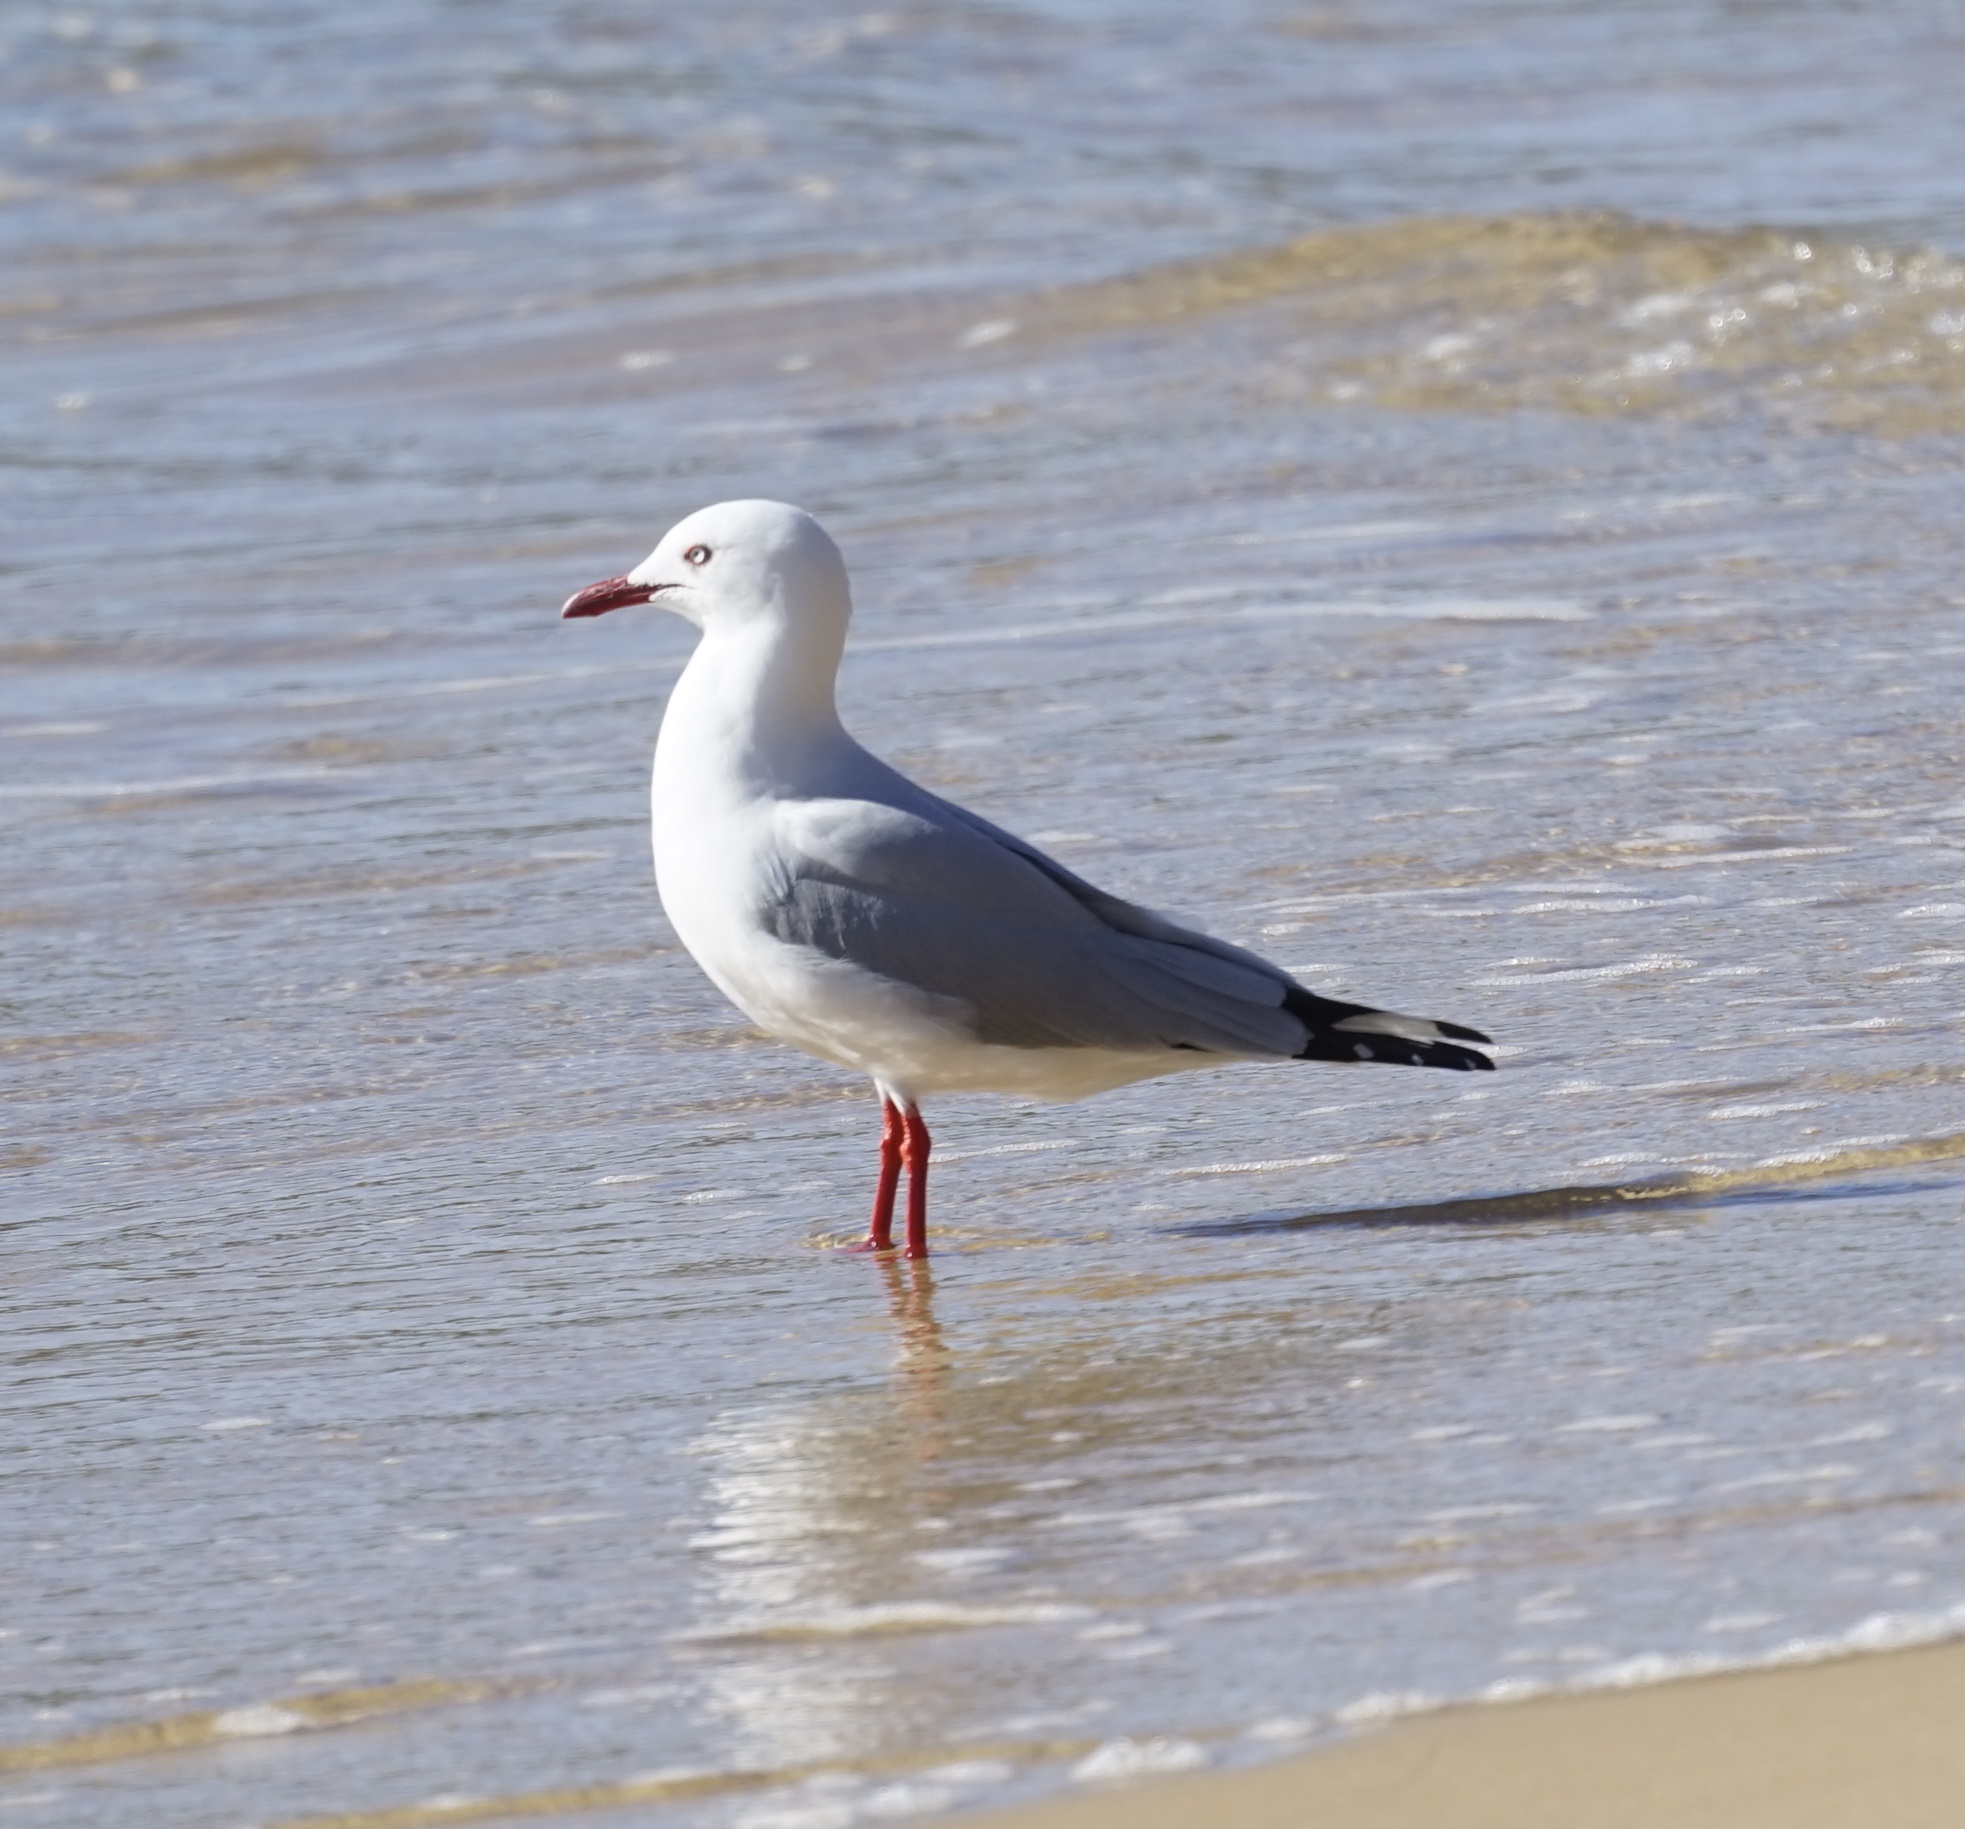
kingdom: Animalia
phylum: Chordata
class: Aves
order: Charadriiformes
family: Laridae
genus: Chroicocephalus
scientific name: Chroicocephalus novaehollandiae
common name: Silver gull
